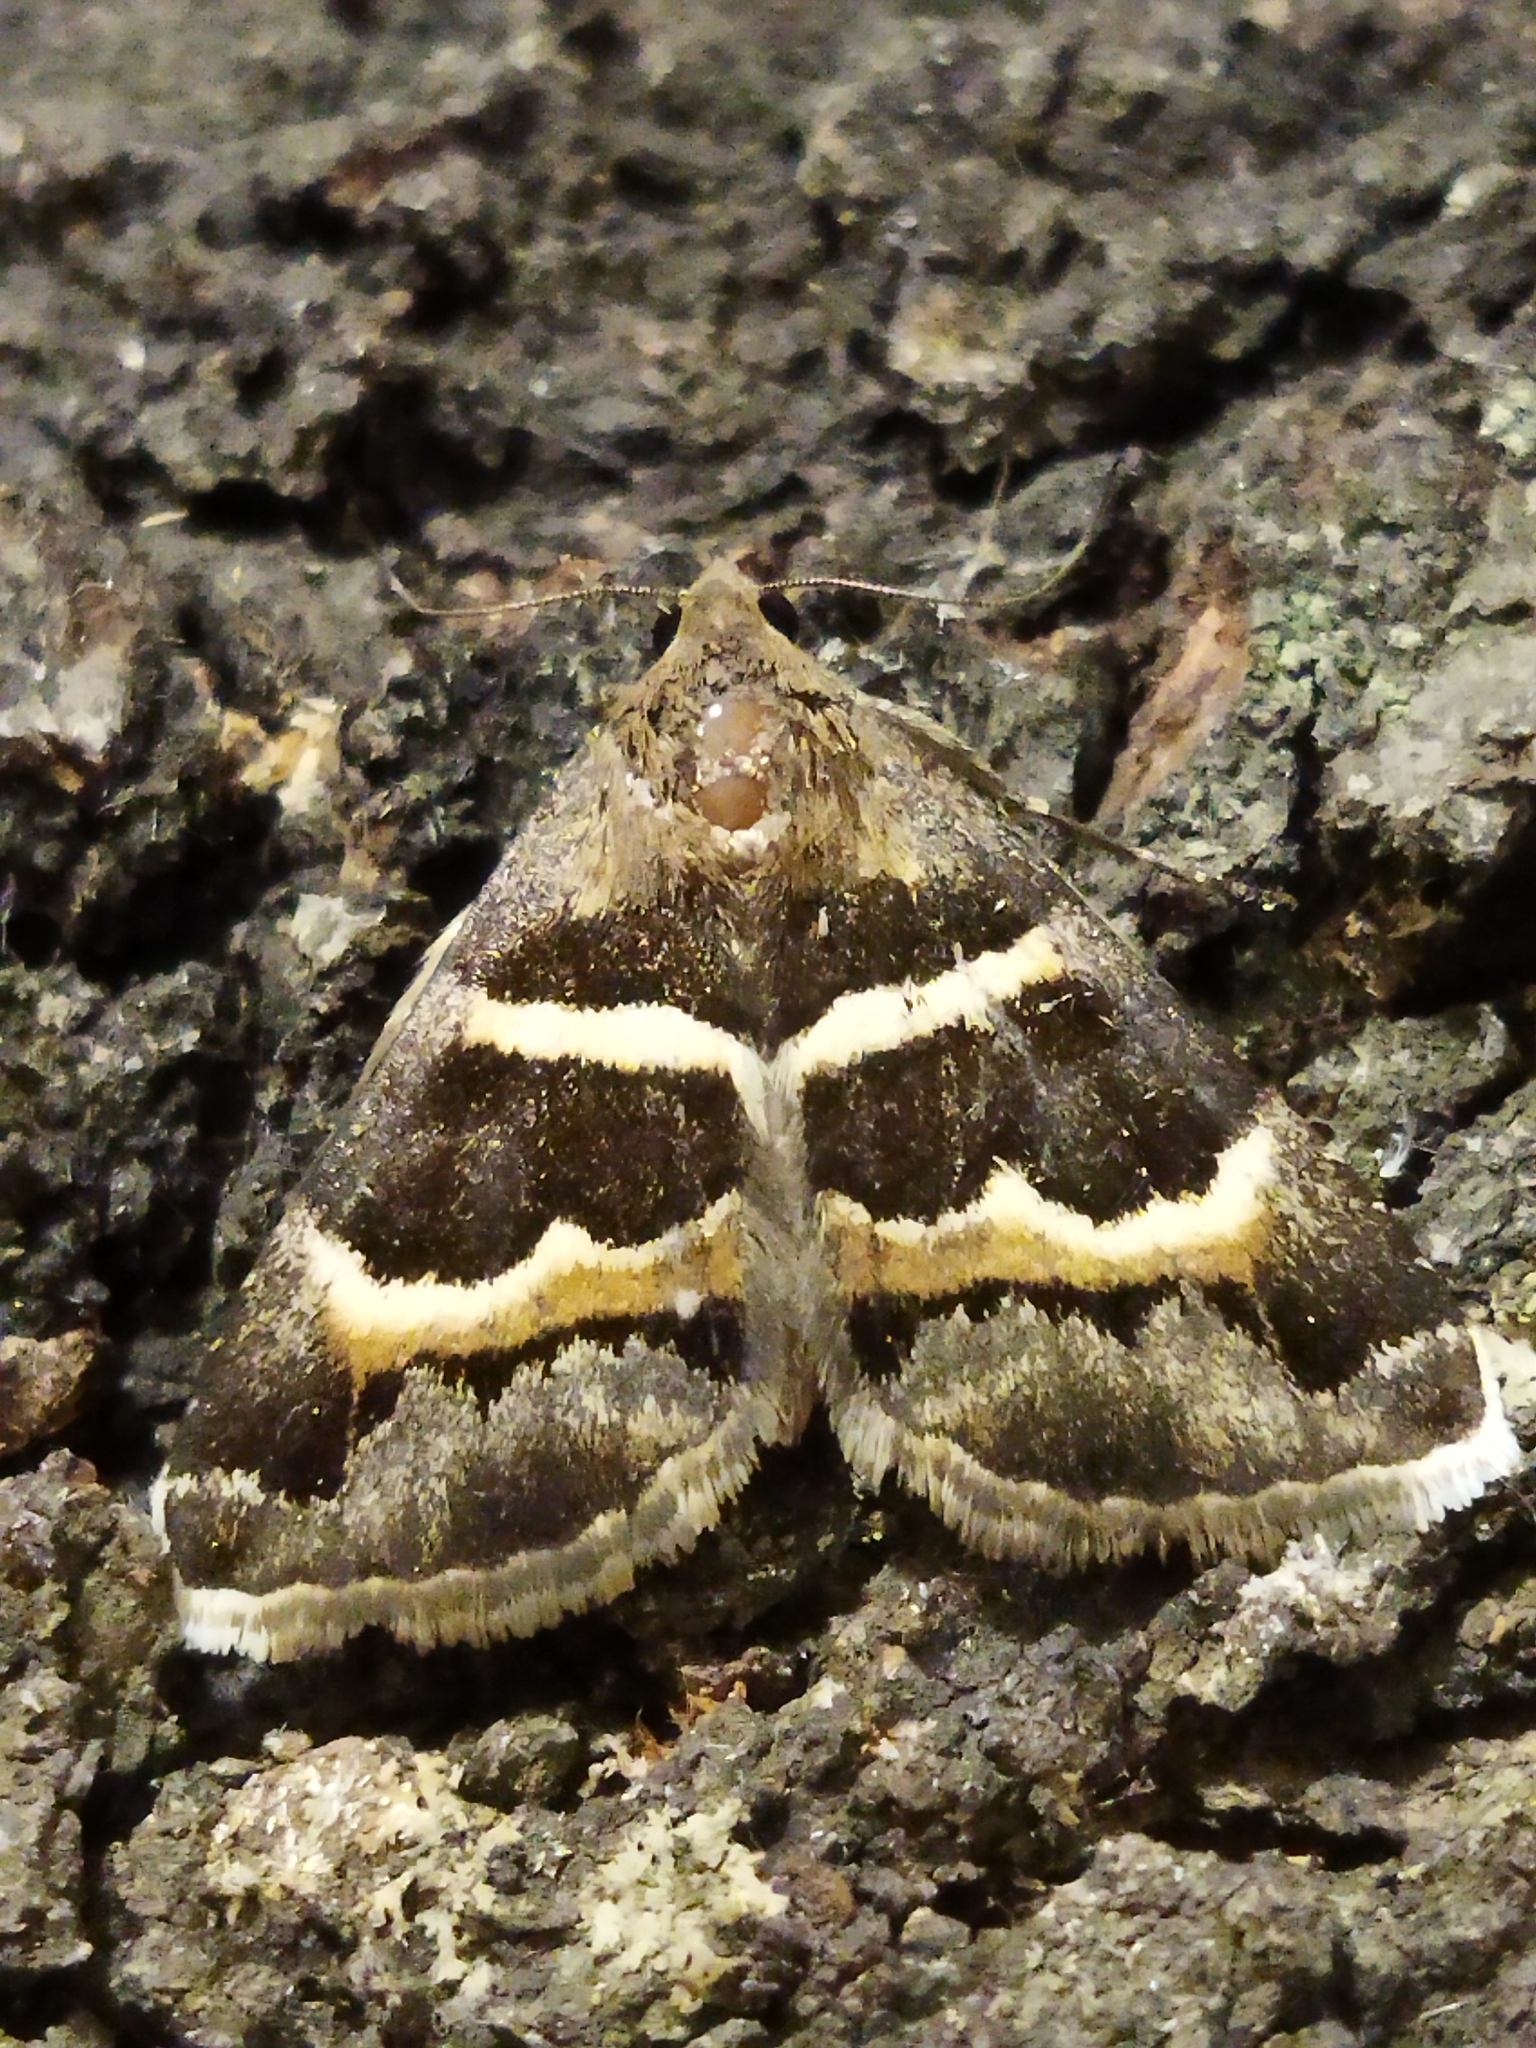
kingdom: Animalia
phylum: Arthropoda
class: Insecta
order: Lepidoptera
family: Erebidae
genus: Grammodes
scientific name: Grammodes stolida
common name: Geometrician
